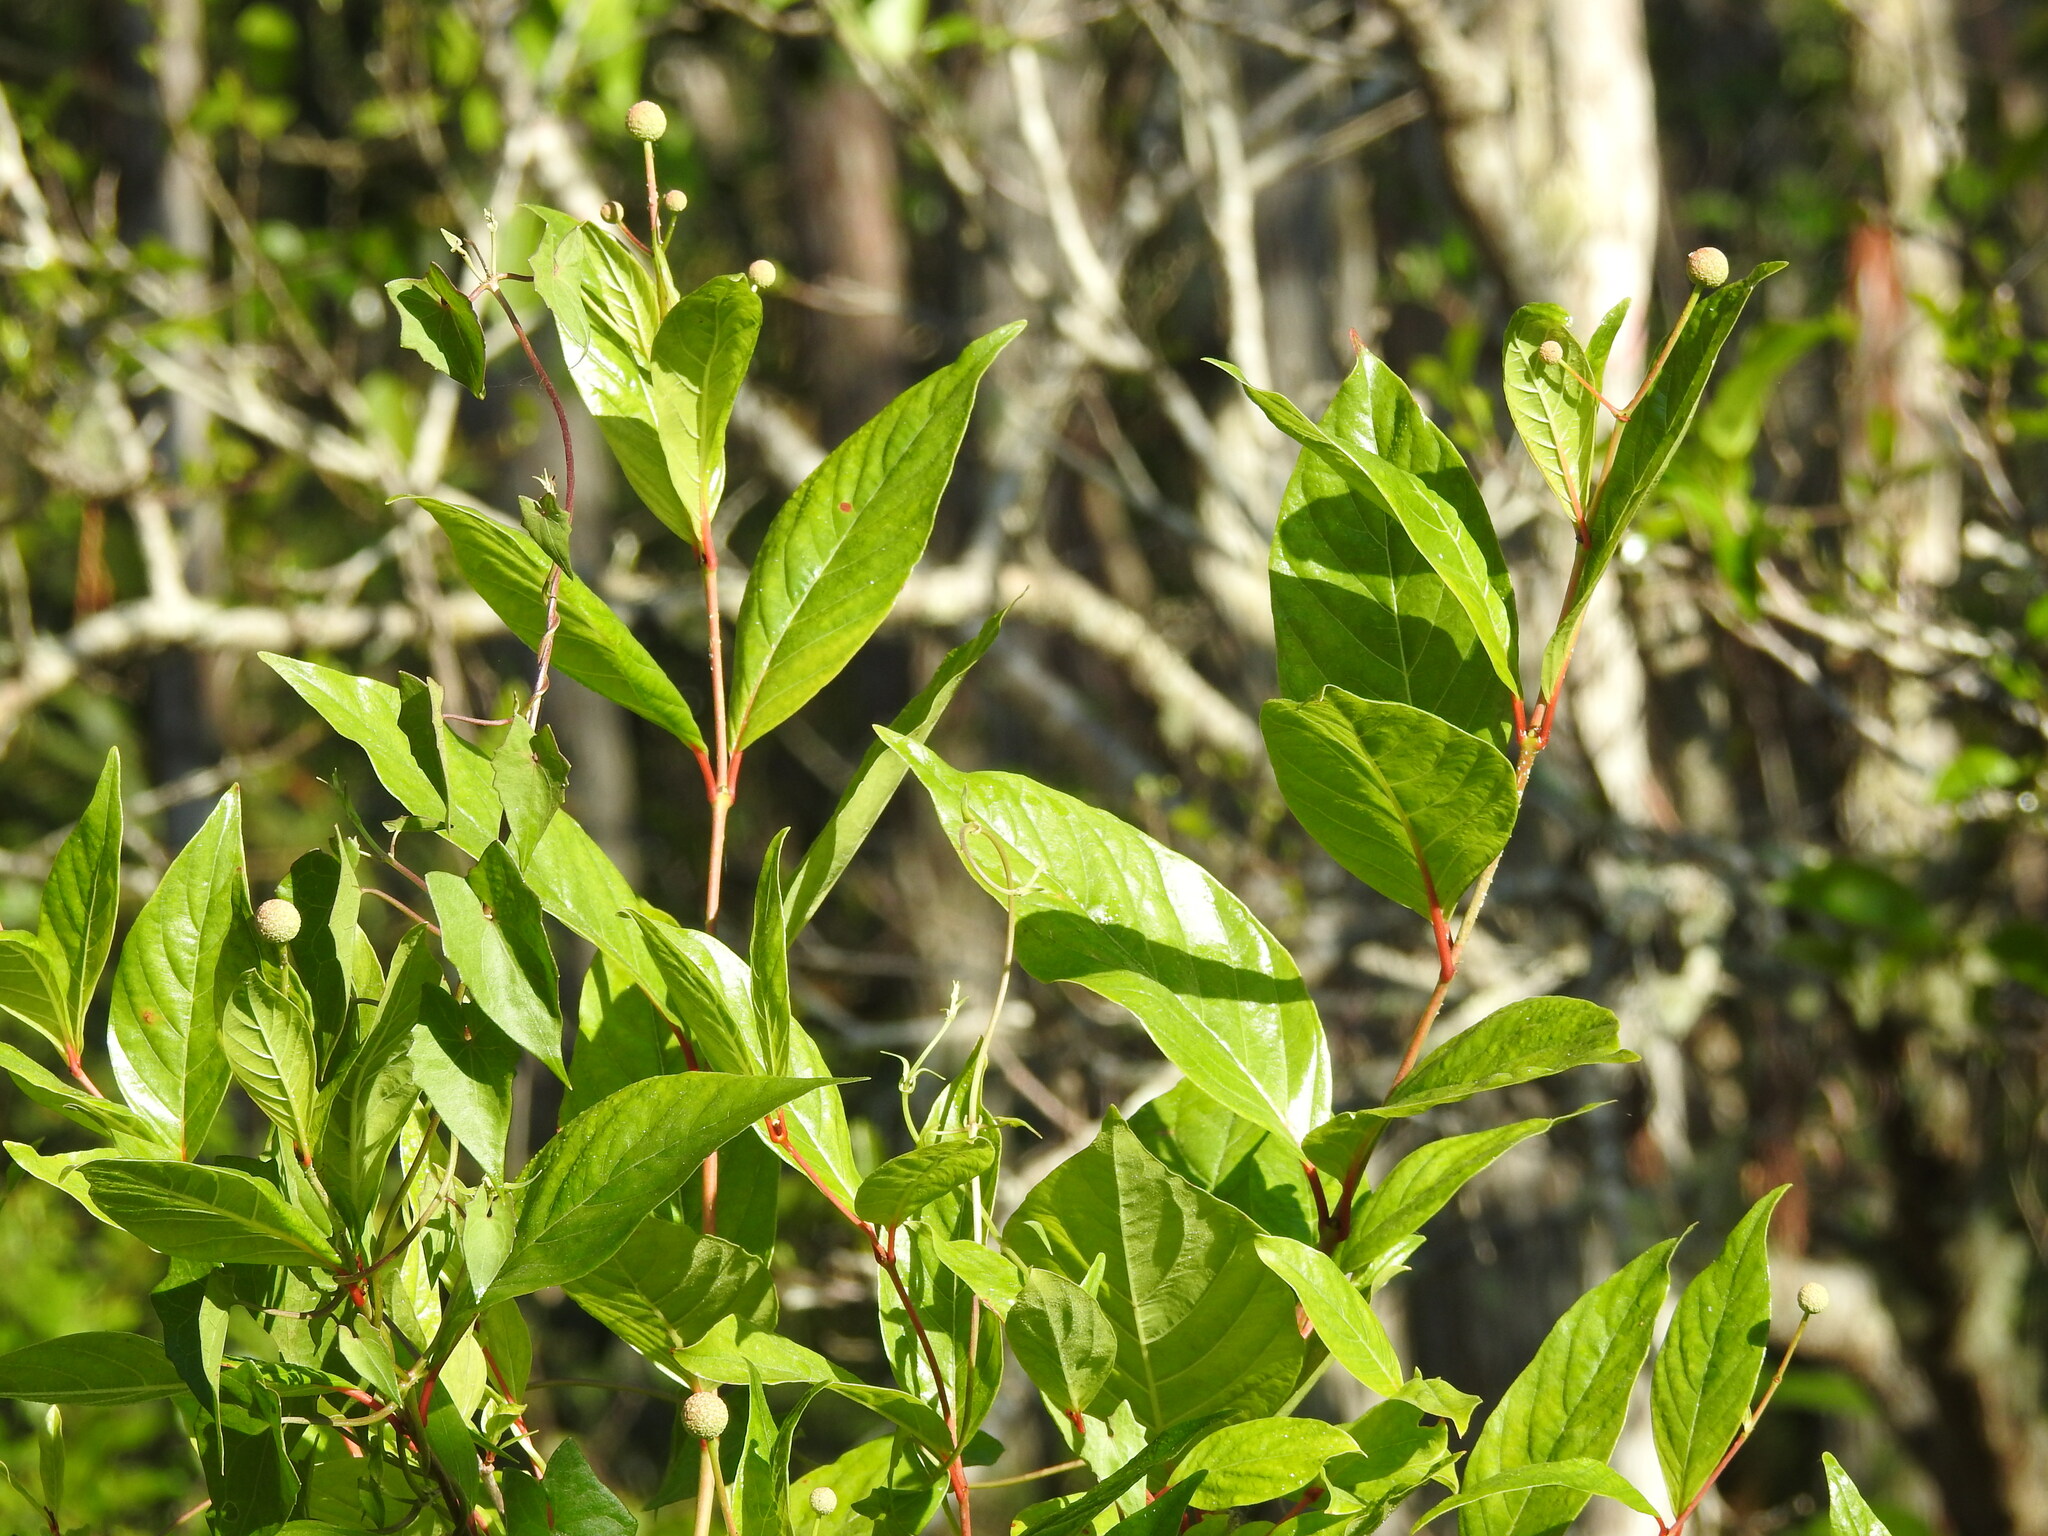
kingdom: Plantae
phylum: Tracheophyta
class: Magnoliopsida
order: Gentianales
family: Rubiaceae
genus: Cephalanthus
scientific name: Cephalanthus occidentalis
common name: Button-willow
